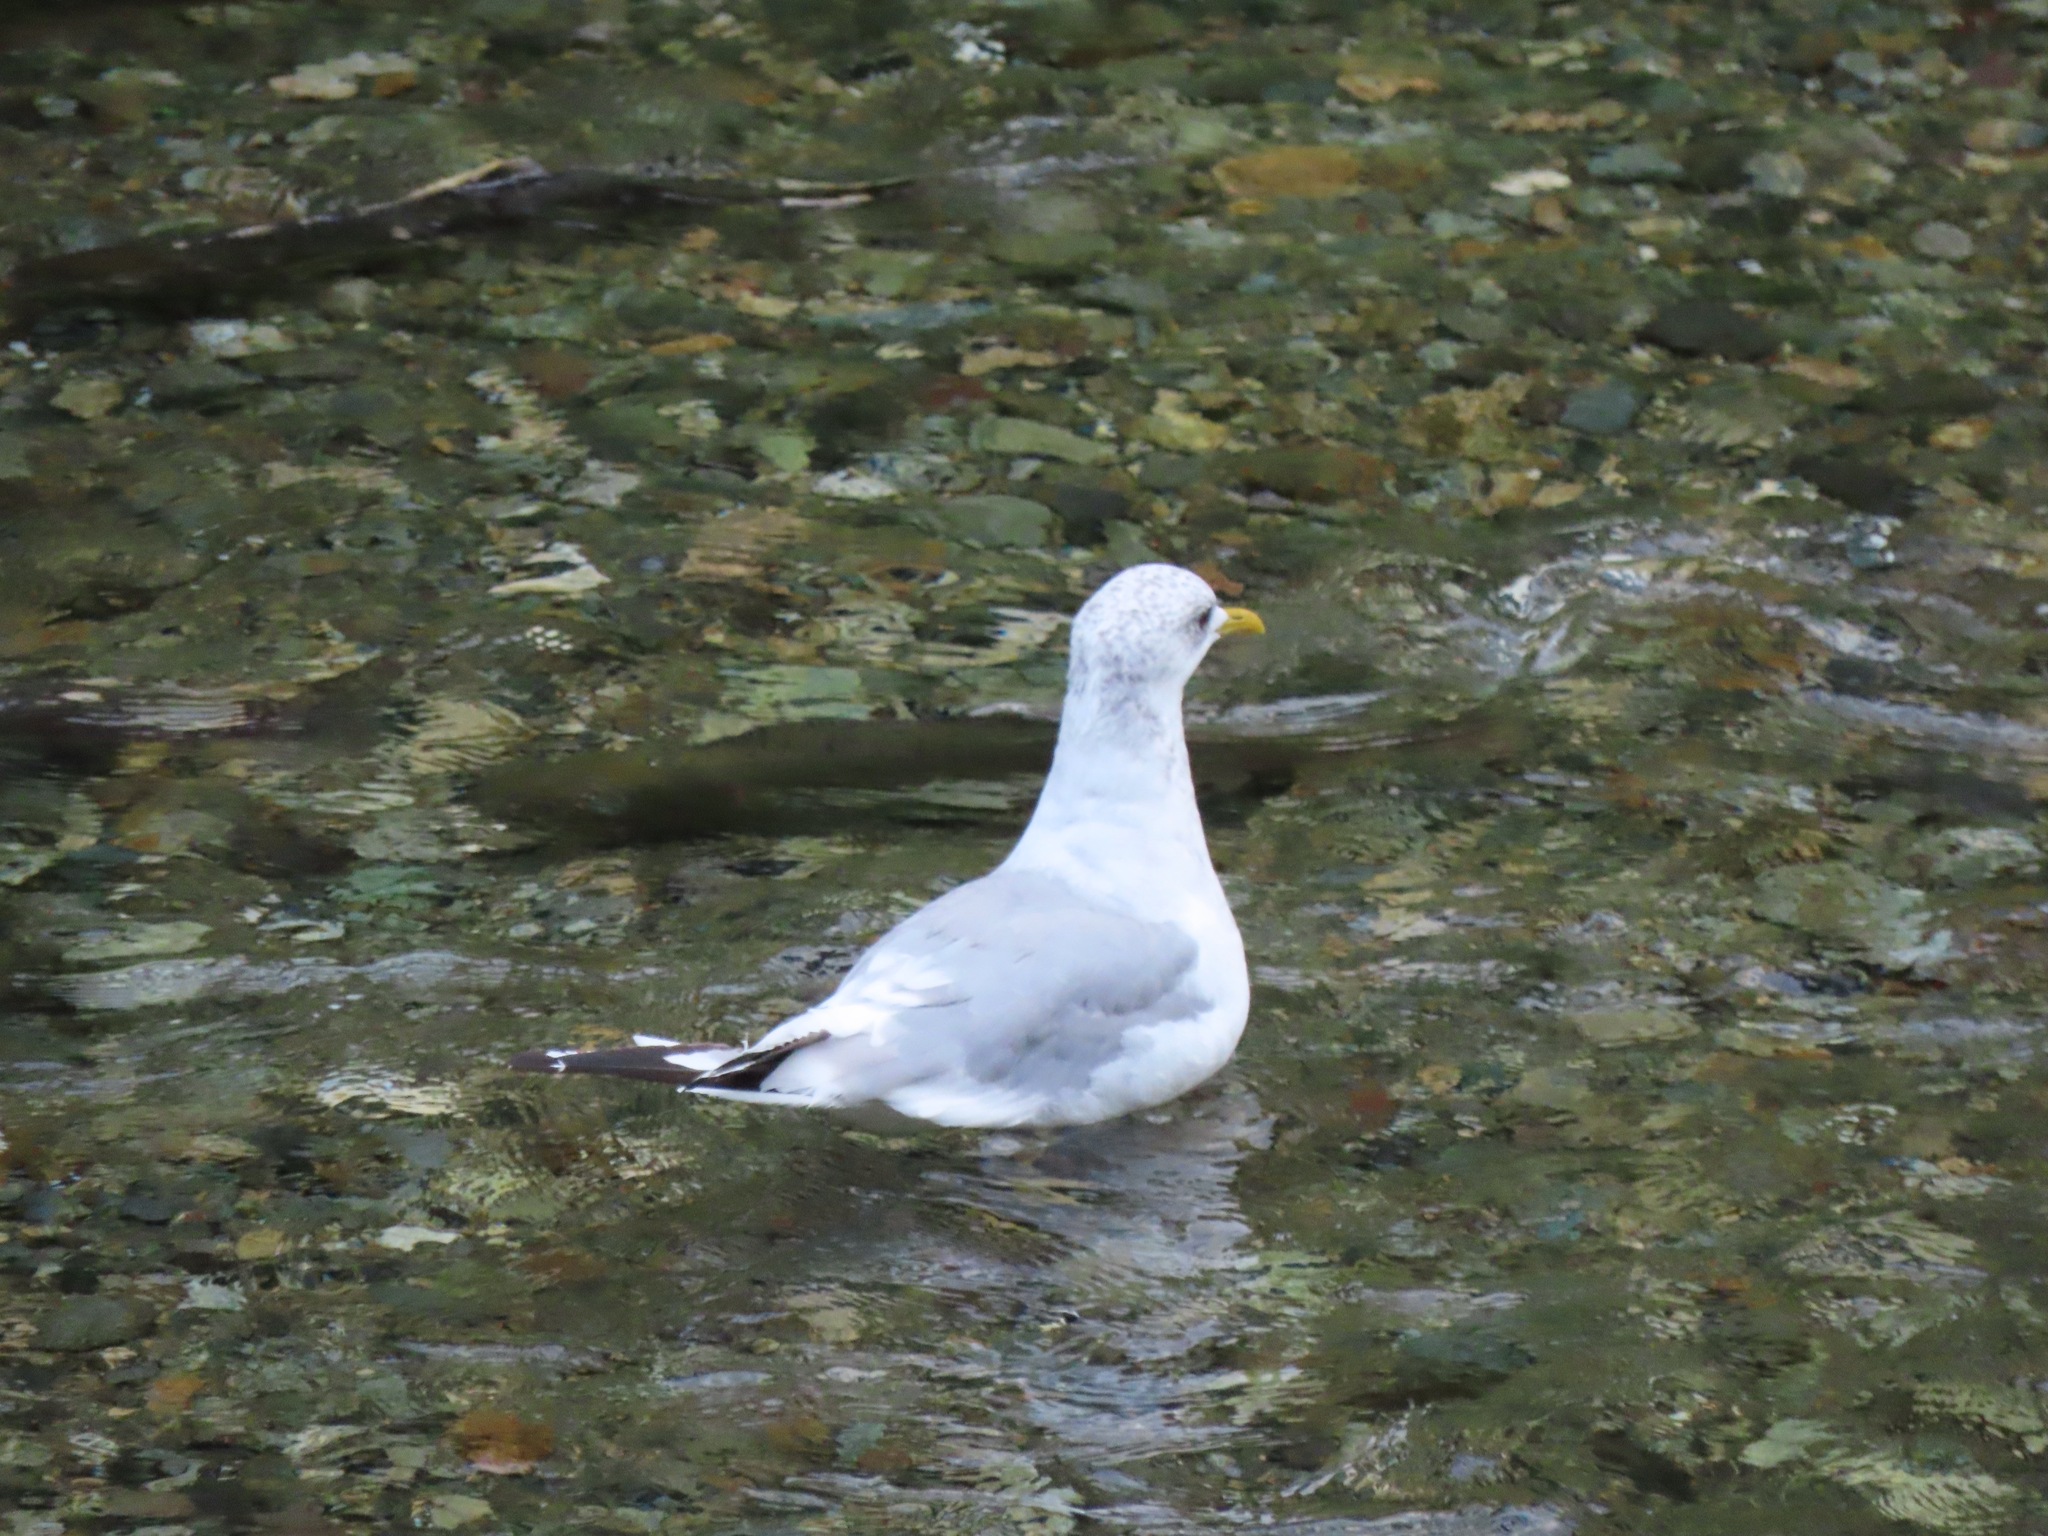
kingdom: Animalia
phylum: Chordata
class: Aves
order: Charadriiformes
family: Laridae
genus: Larus
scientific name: Larus brachyrhynchus
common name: Short-billed gull
